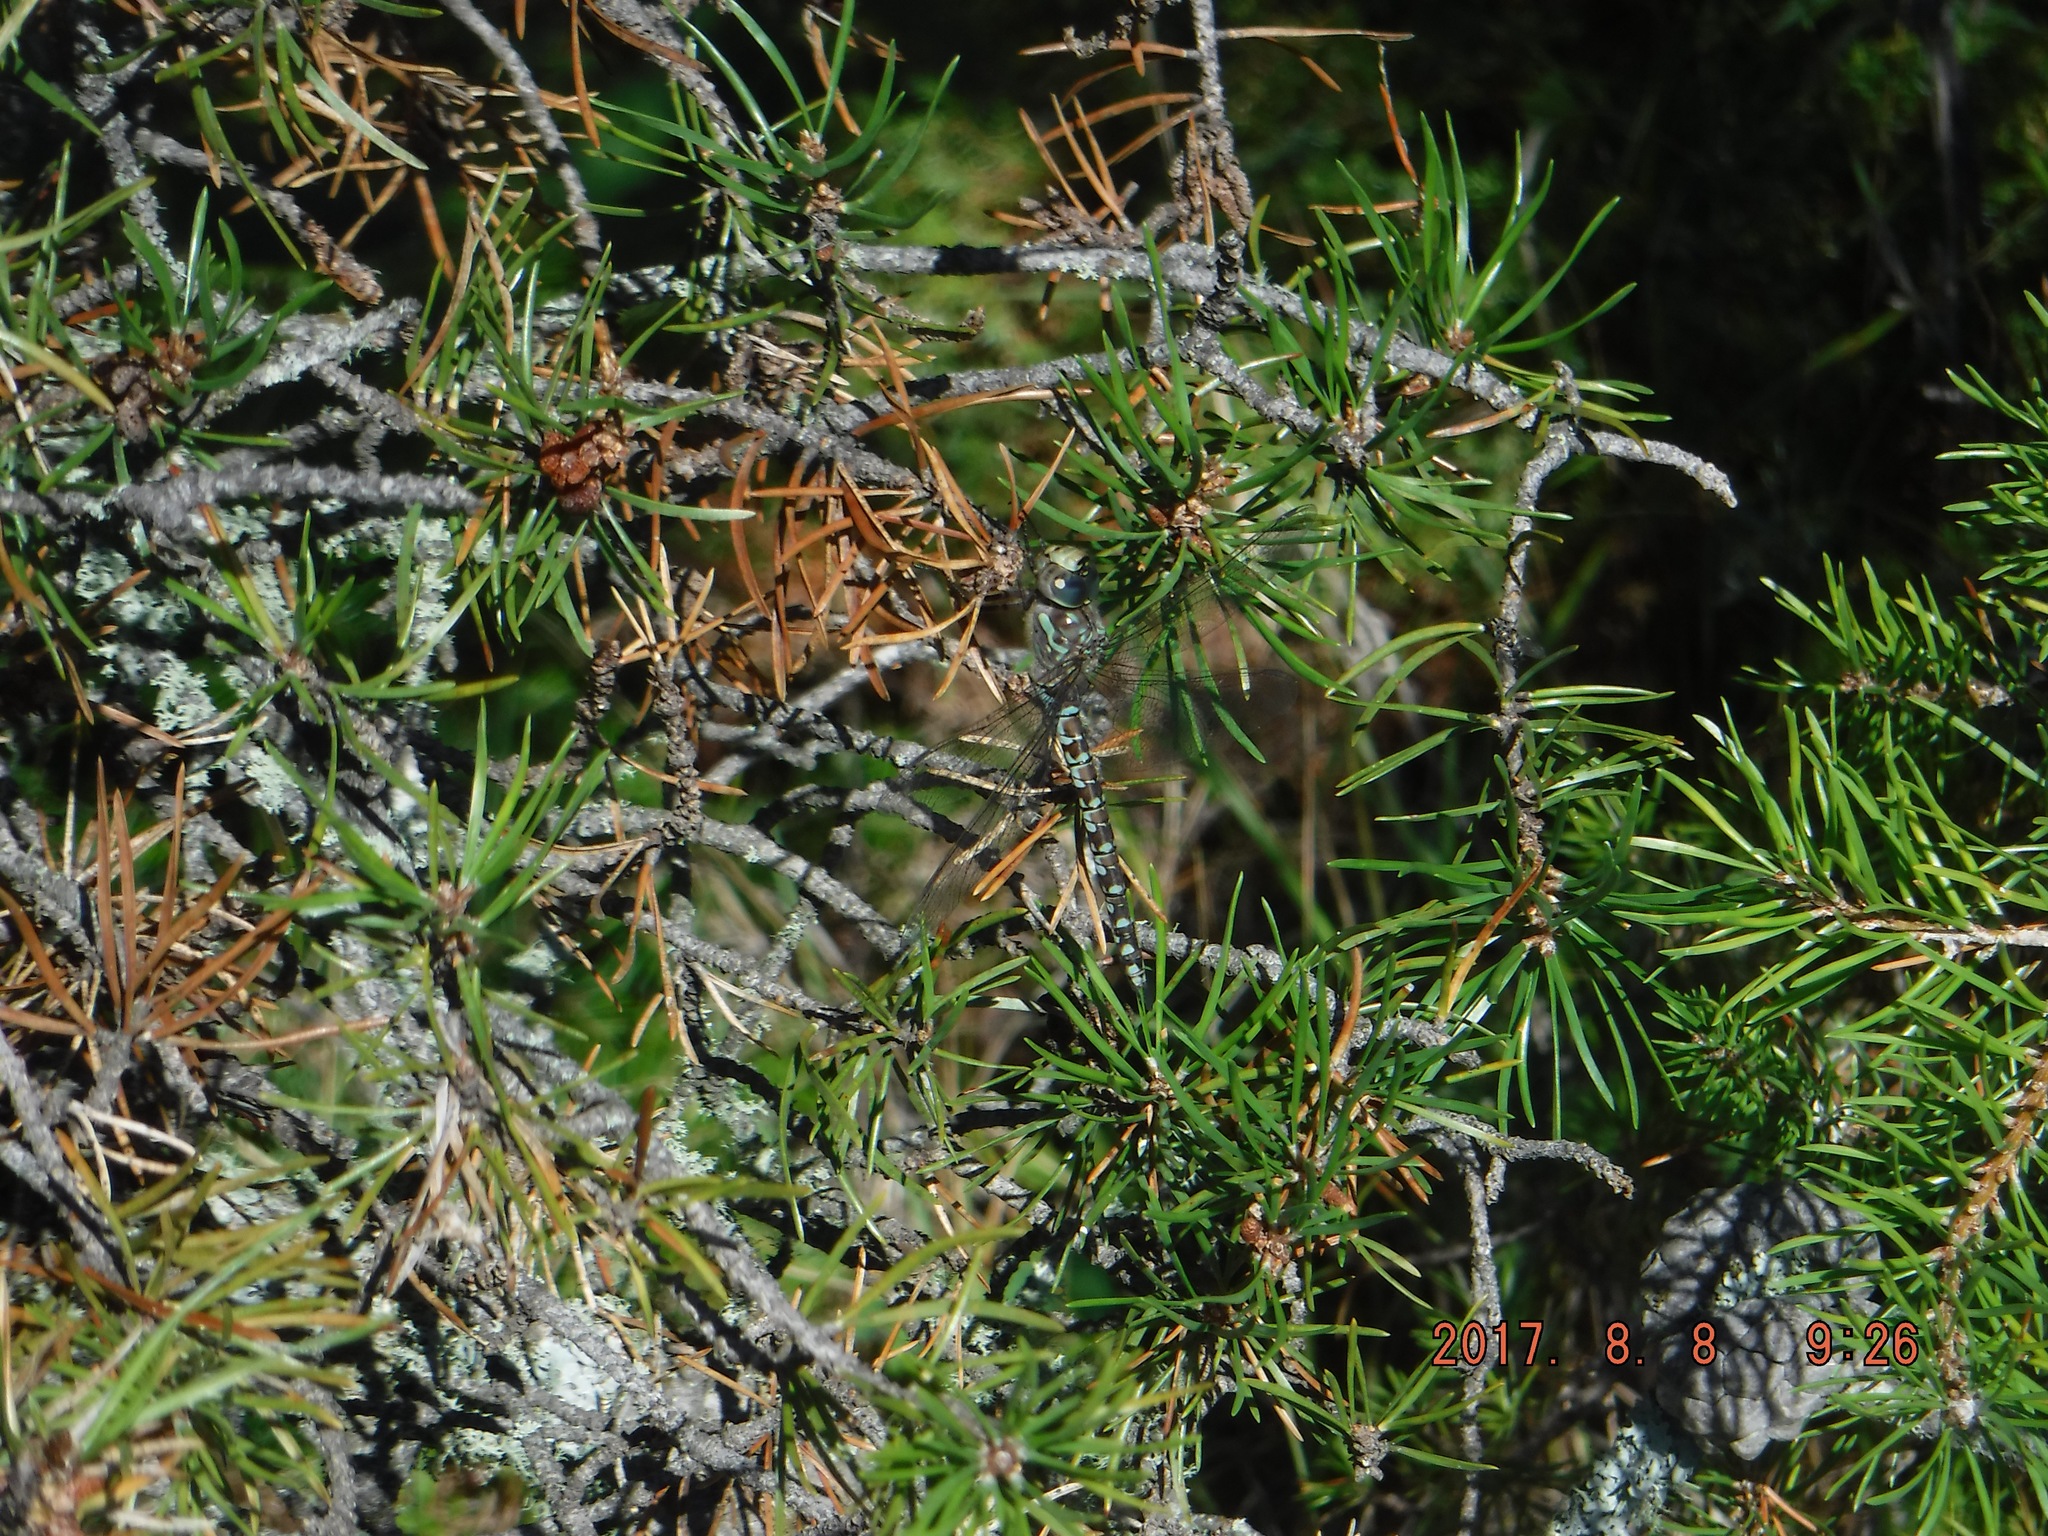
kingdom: Animalia
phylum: Arthropoda
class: Insecta
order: Odonata
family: Aeshnidae
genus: Aeshna
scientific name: Aeshna canadensis
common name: Canada darner
